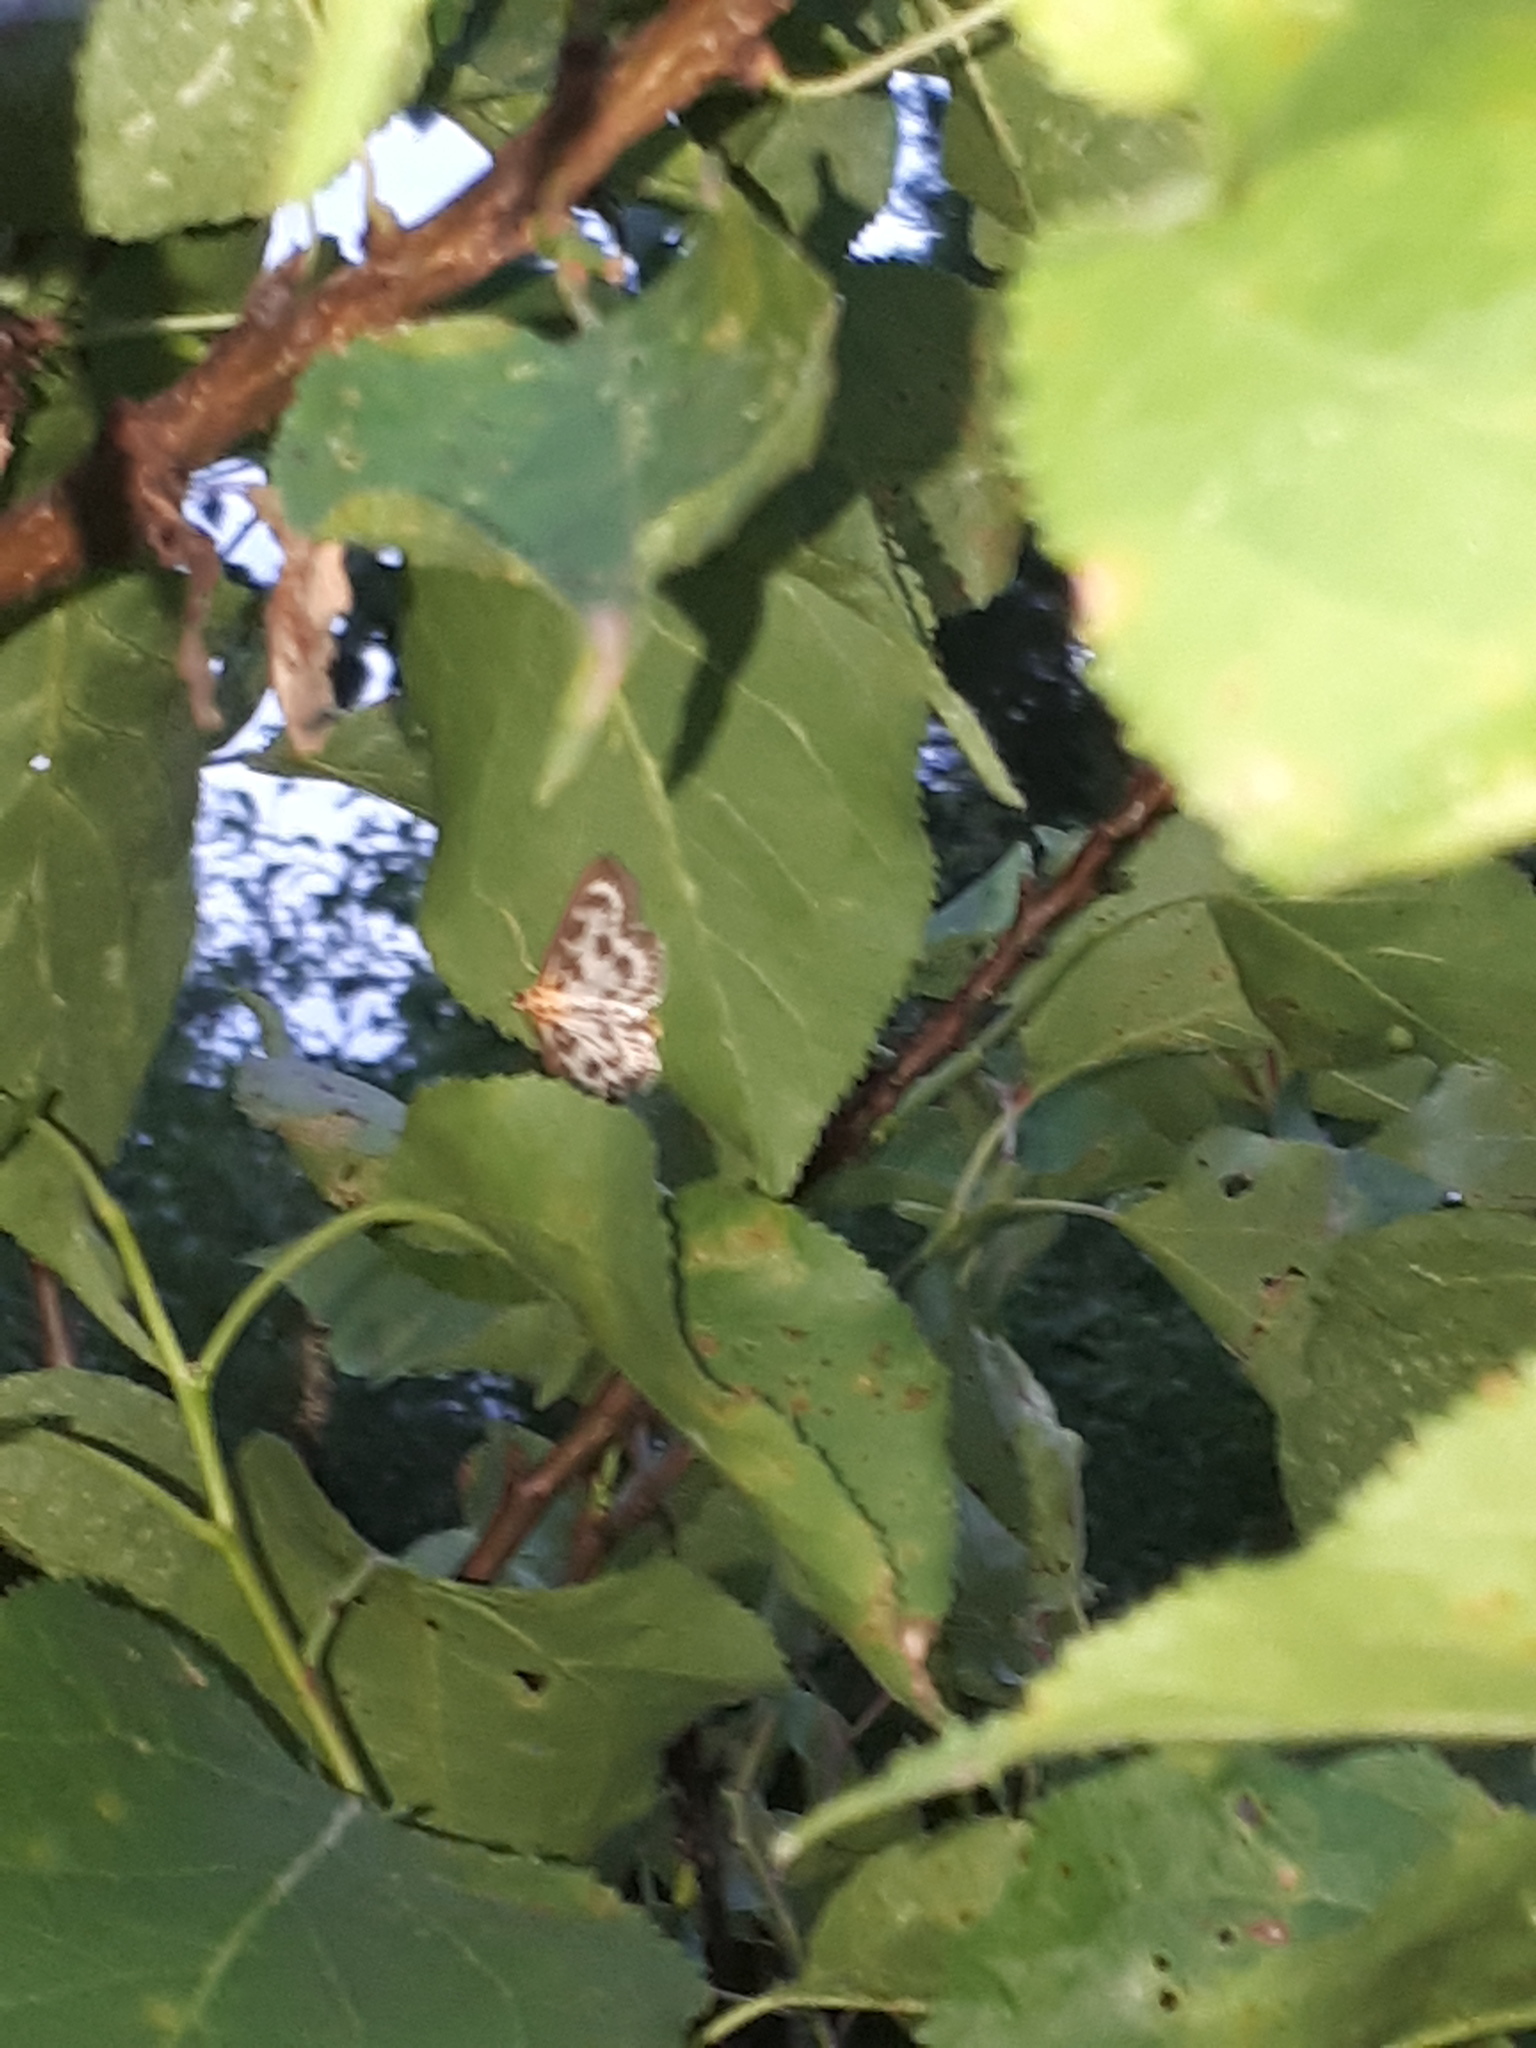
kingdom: Animalia
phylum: Arthropoda
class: Insecta
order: Lepidoptera
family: Crambidae
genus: Anania
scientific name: Anania hortulata
